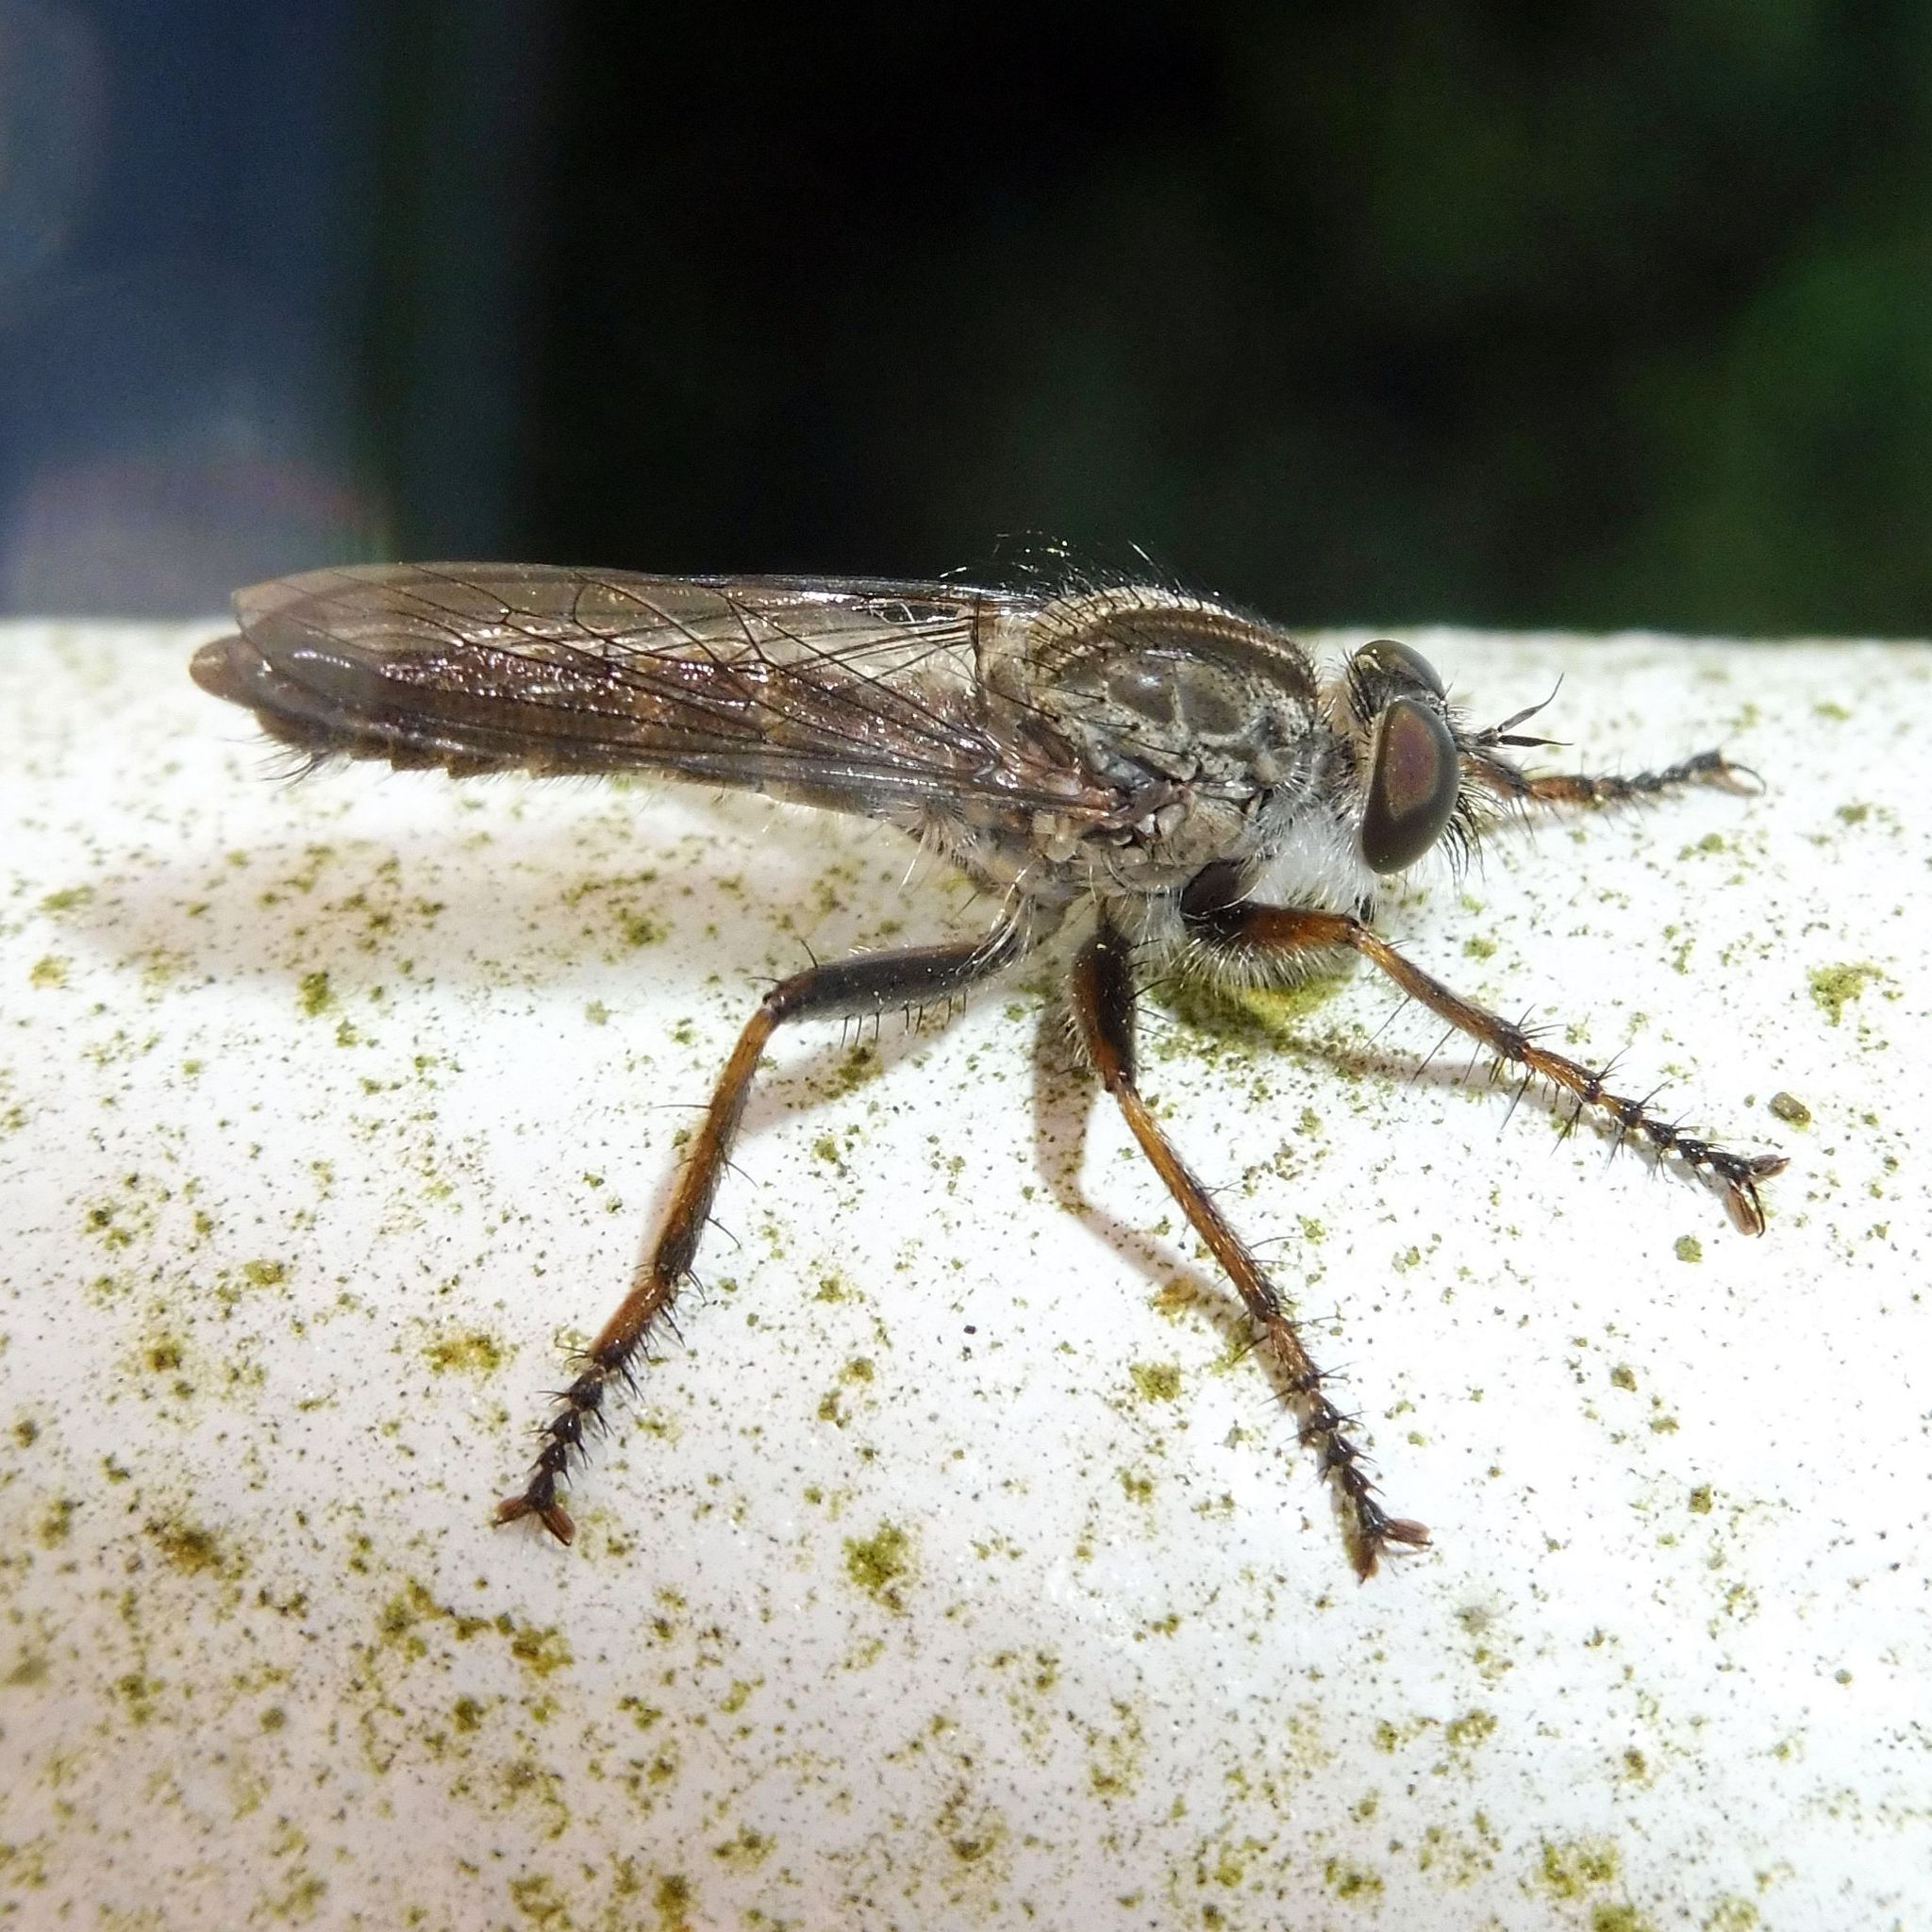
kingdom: Animalia
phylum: Arthropoda
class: Insecta
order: Diptera
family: Asilidae
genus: Machimus
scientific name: Machimus atricapillus
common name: Kite-tailed robberfly
